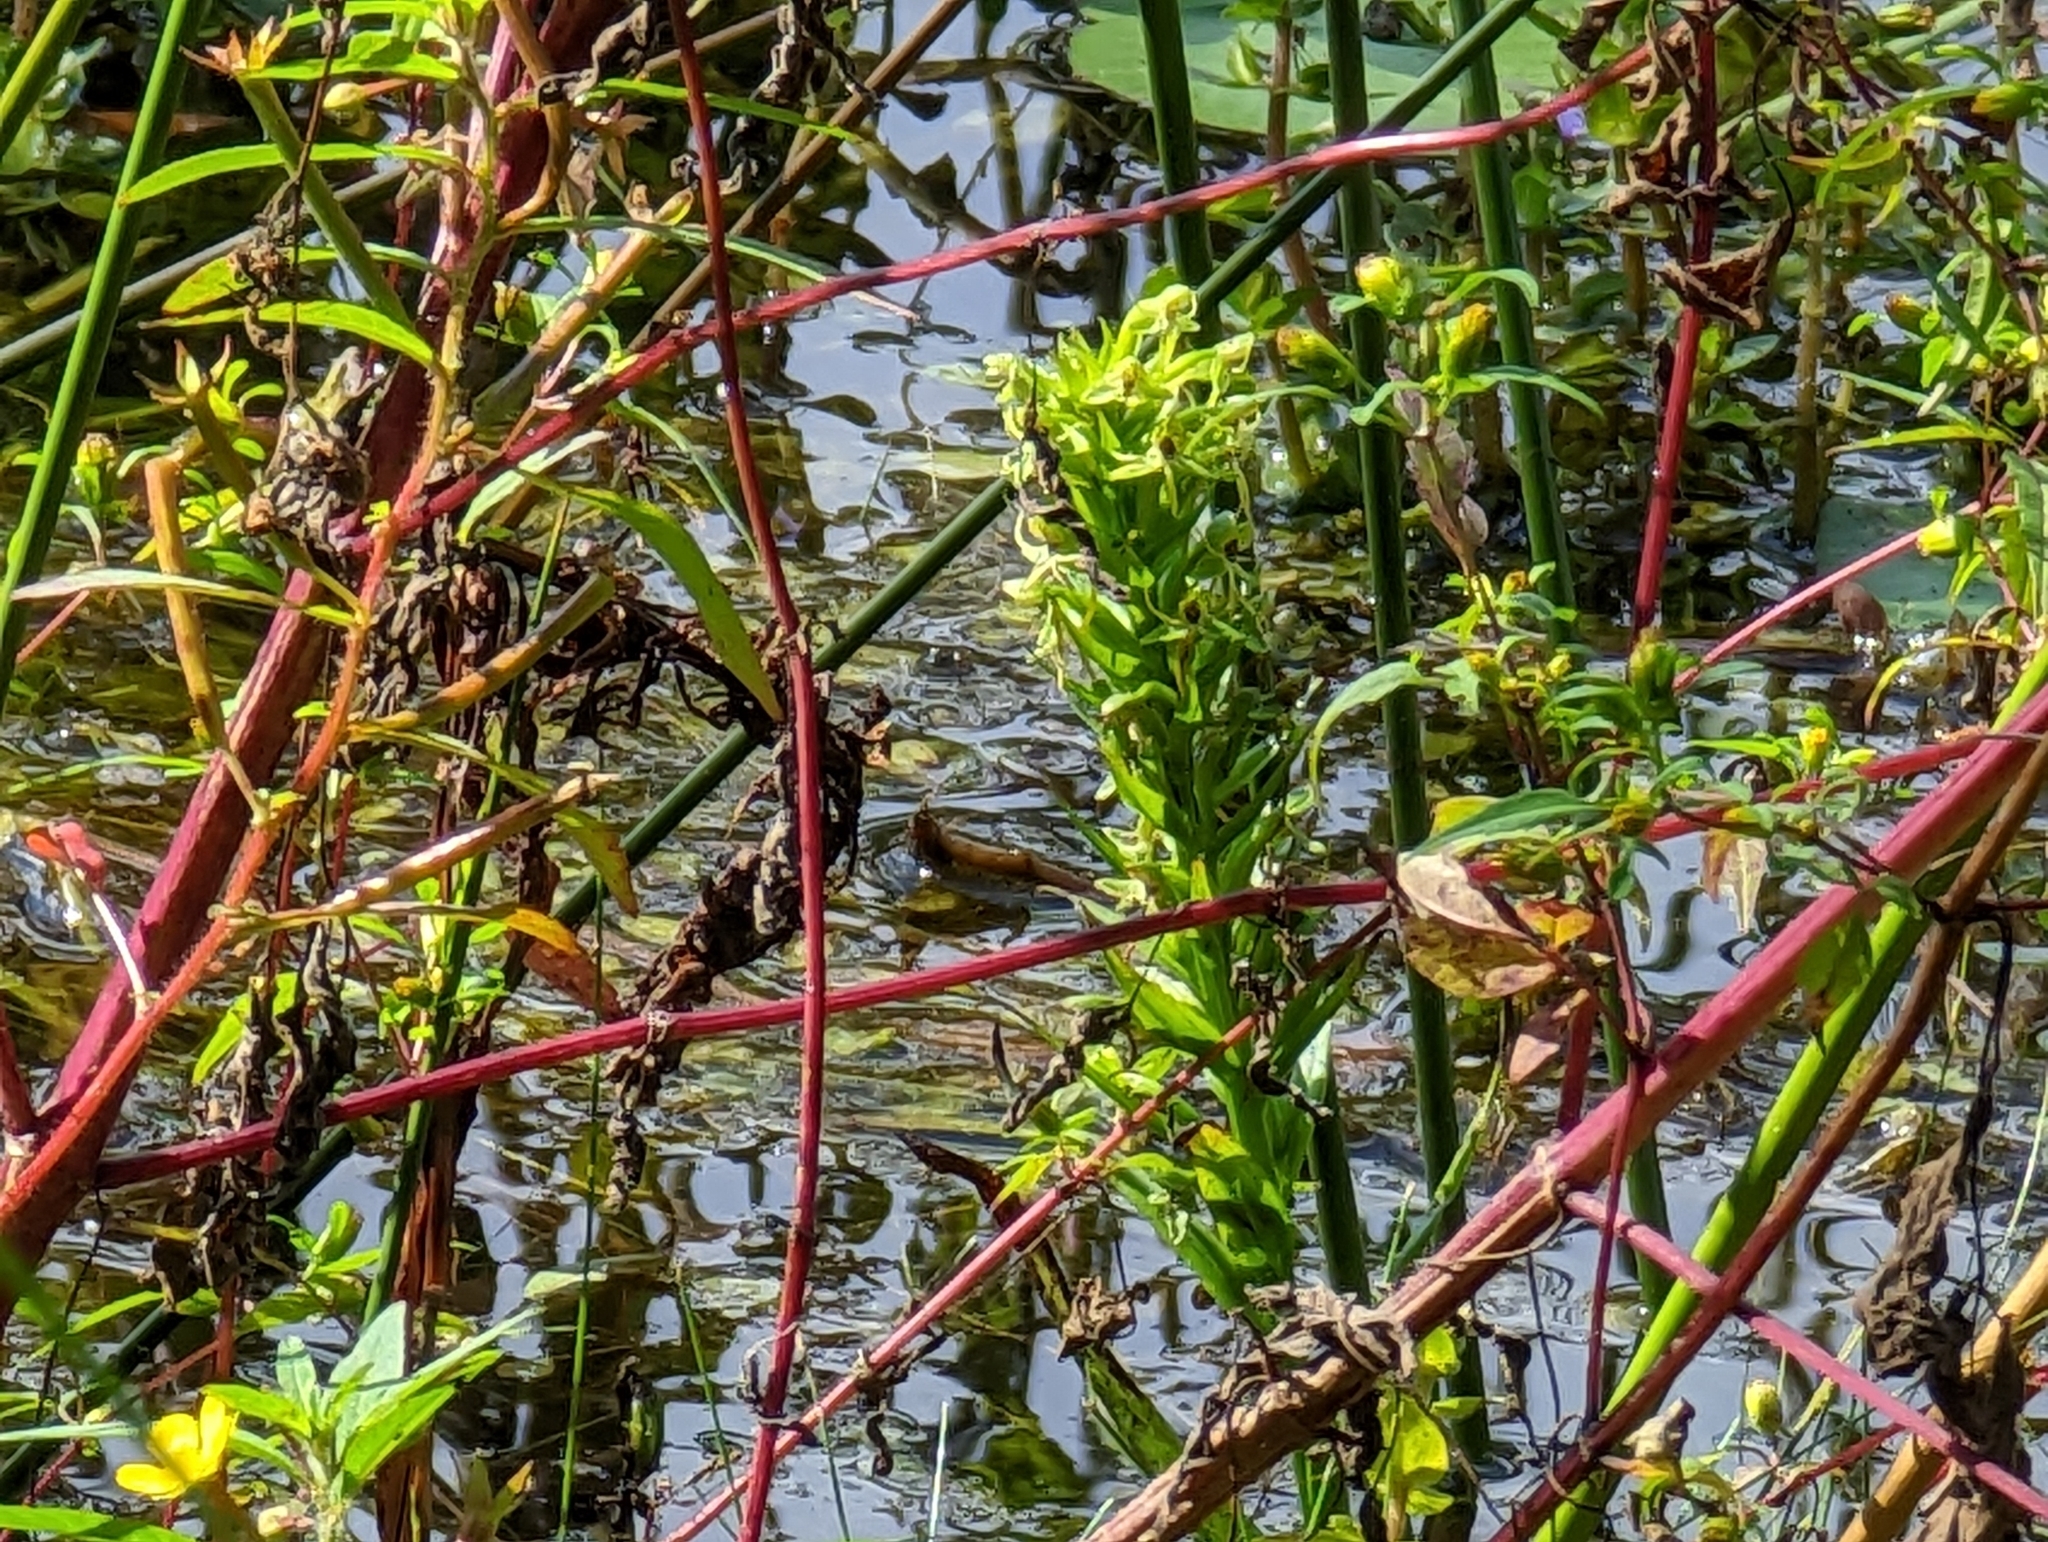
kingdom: Plantae
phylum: Tracheophyta
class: Liliopsida
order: Asparagales
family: Orchidaceae
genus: Habenaria
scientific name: Habenaria repens
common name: Water orchid
